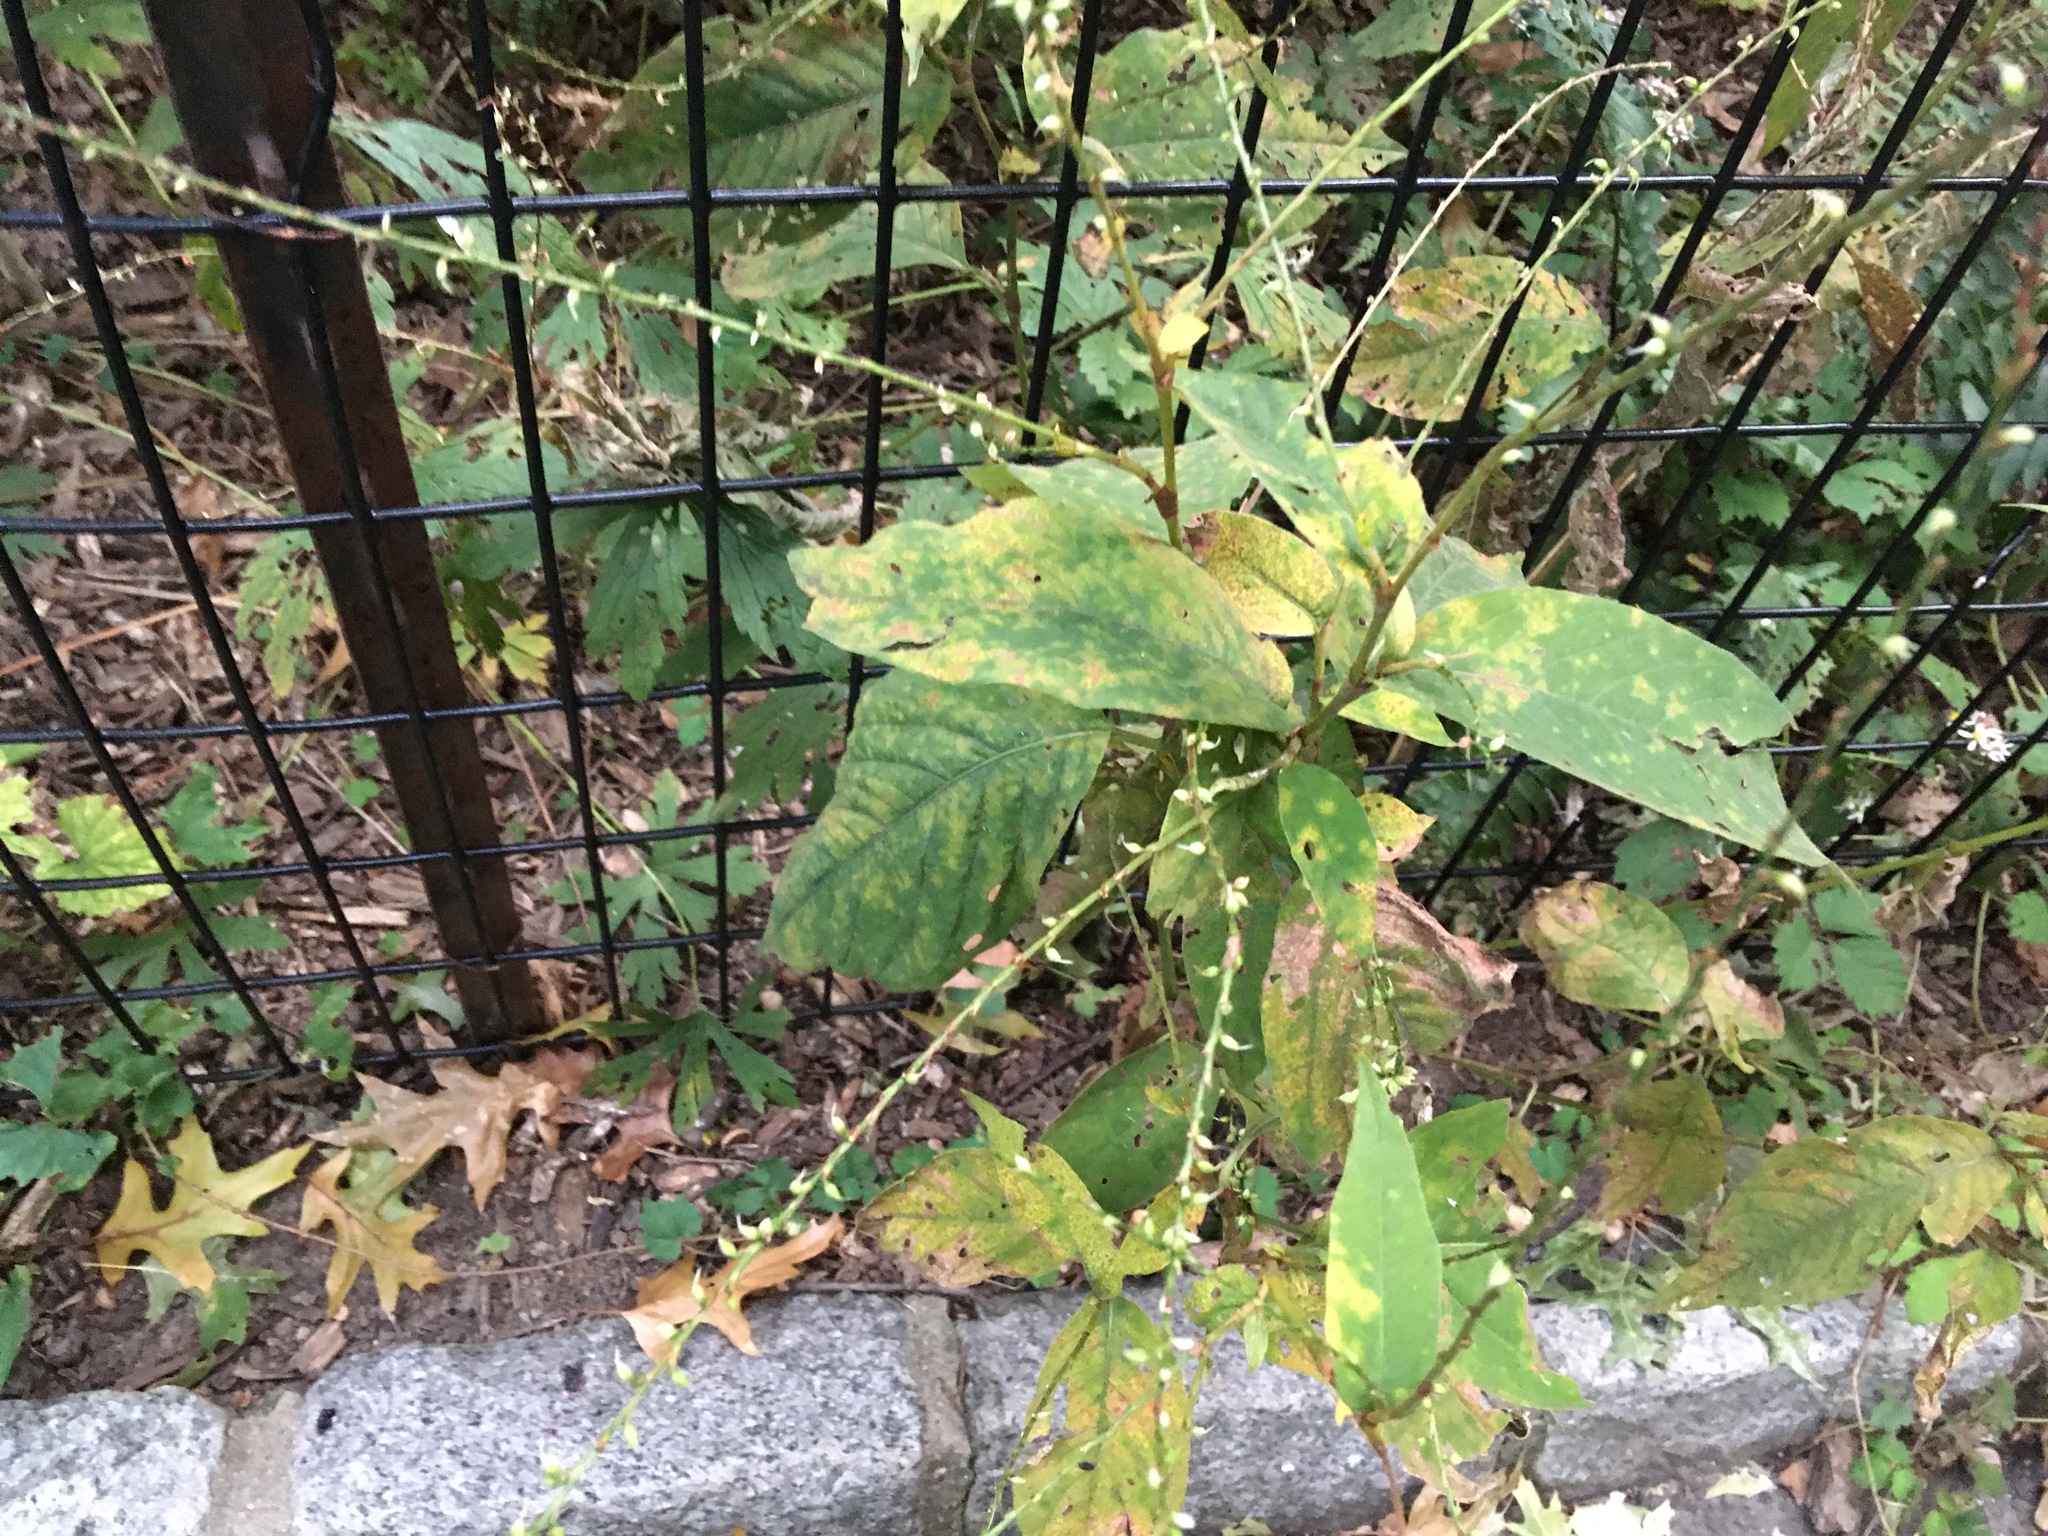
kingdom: Plantae
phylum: Tracheophyta
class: Magnoliopsida
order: Caryophyllales
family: Polygonaceae
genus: Persicaria
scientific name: Persicaria virginiana
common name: Jumpseed
